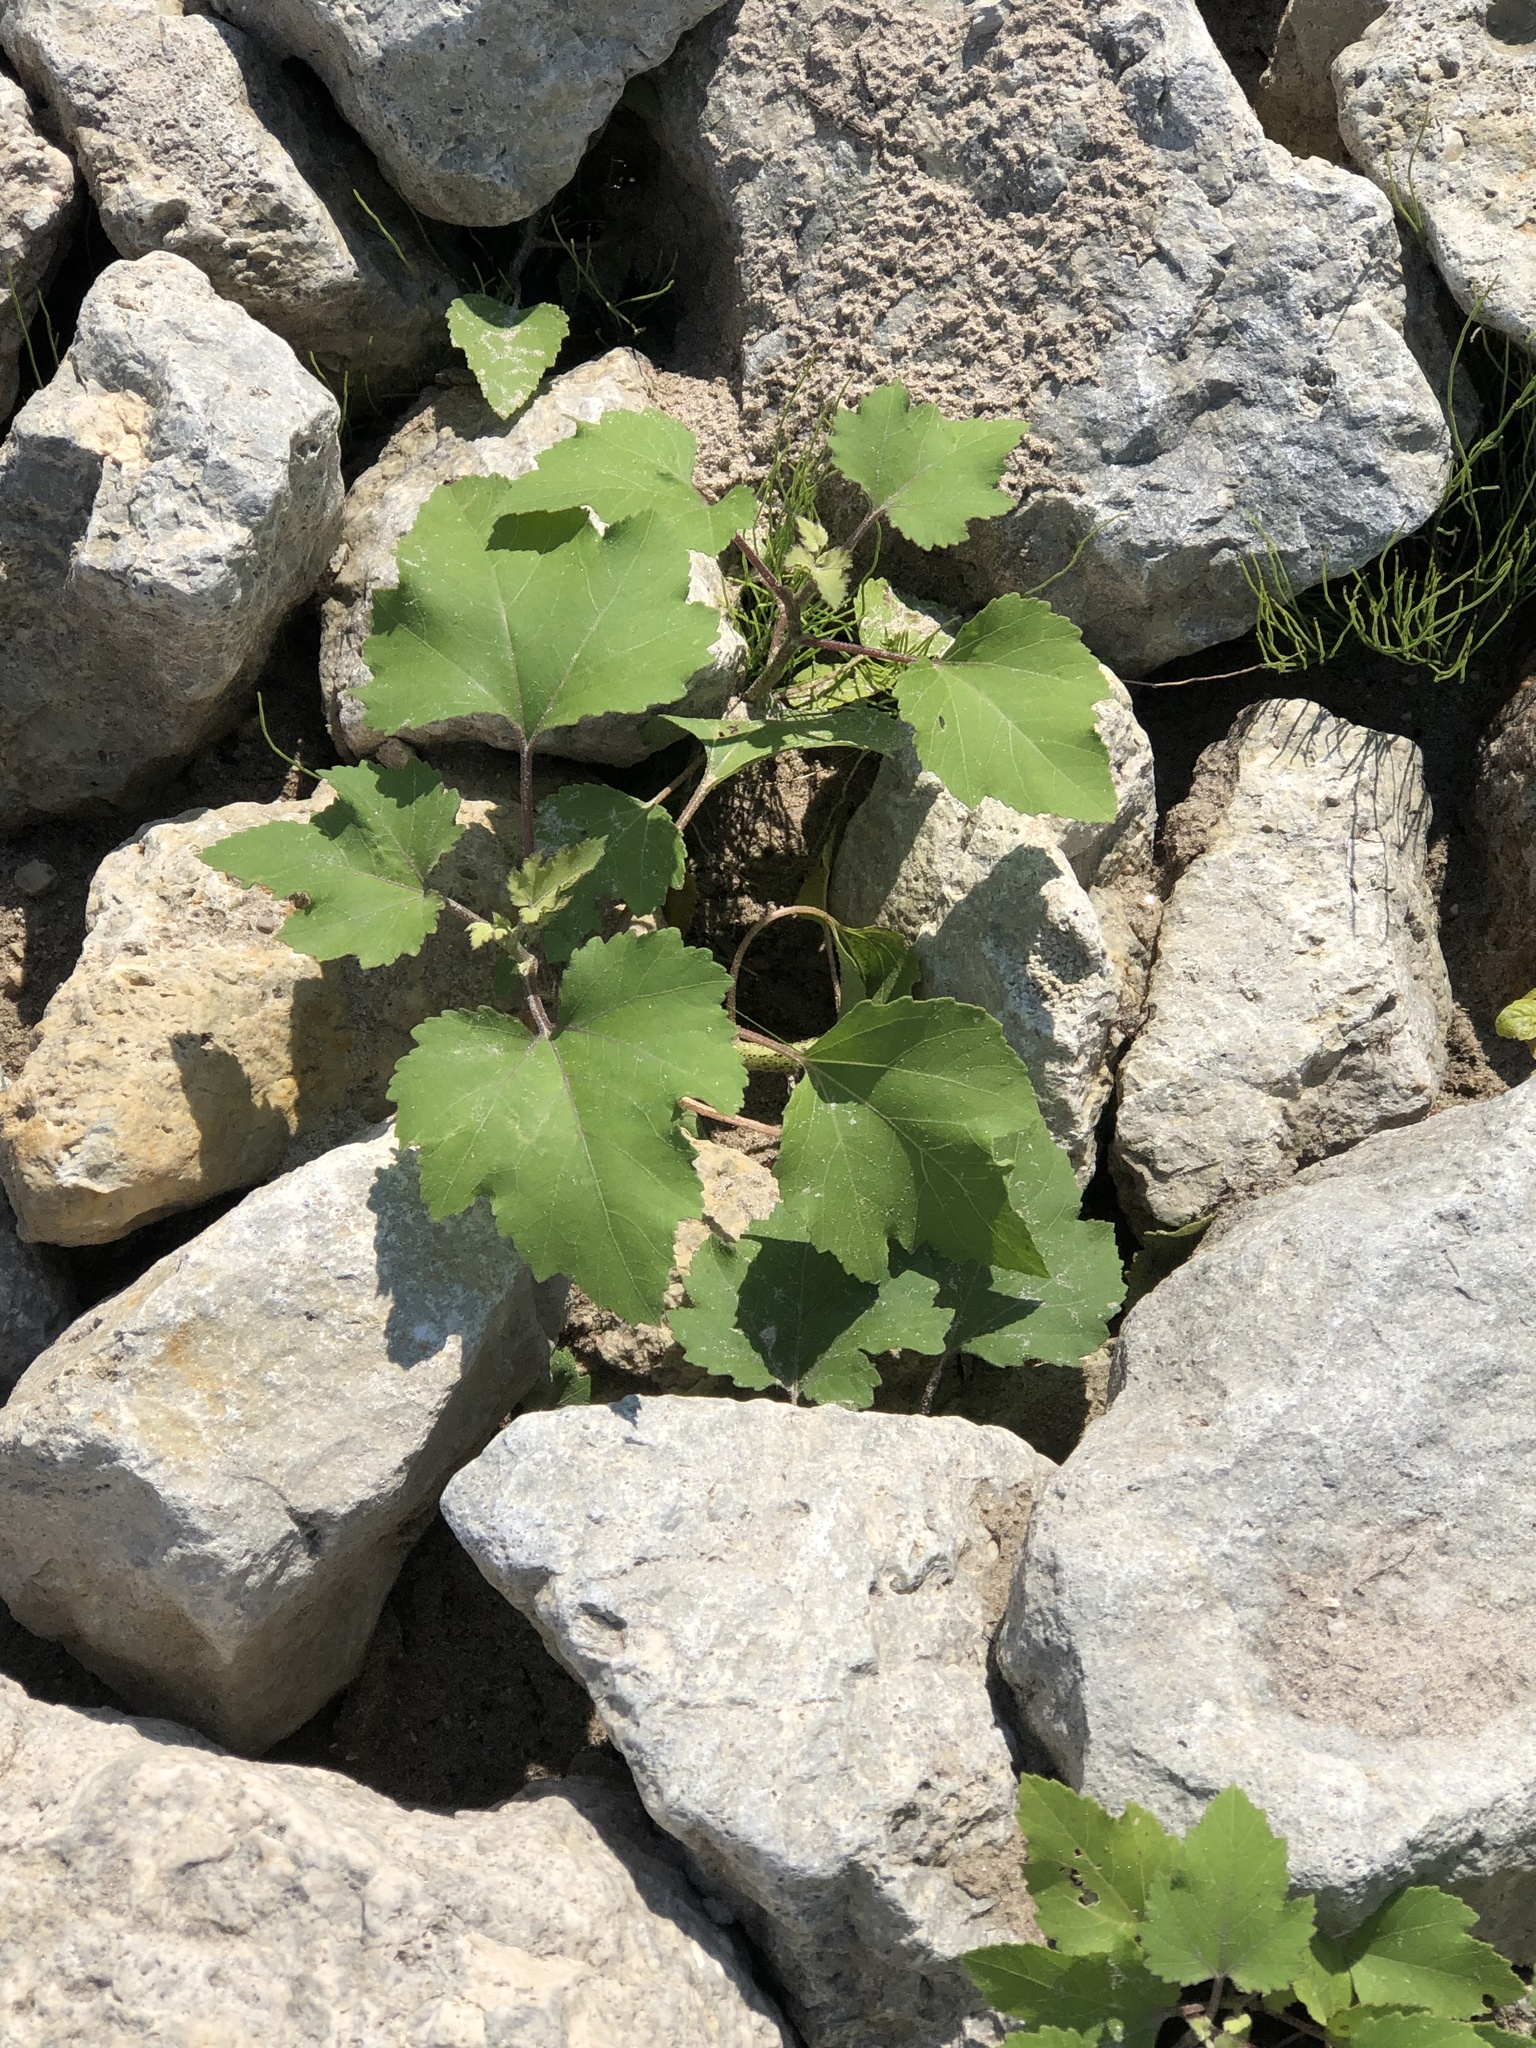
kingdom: Plantae
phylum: Tracheophyta
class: Magnoliopsida
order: Asterales
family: Asteraceae
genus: Xanthium
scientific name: Xanthium strumarium
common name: Rough cocklebur
